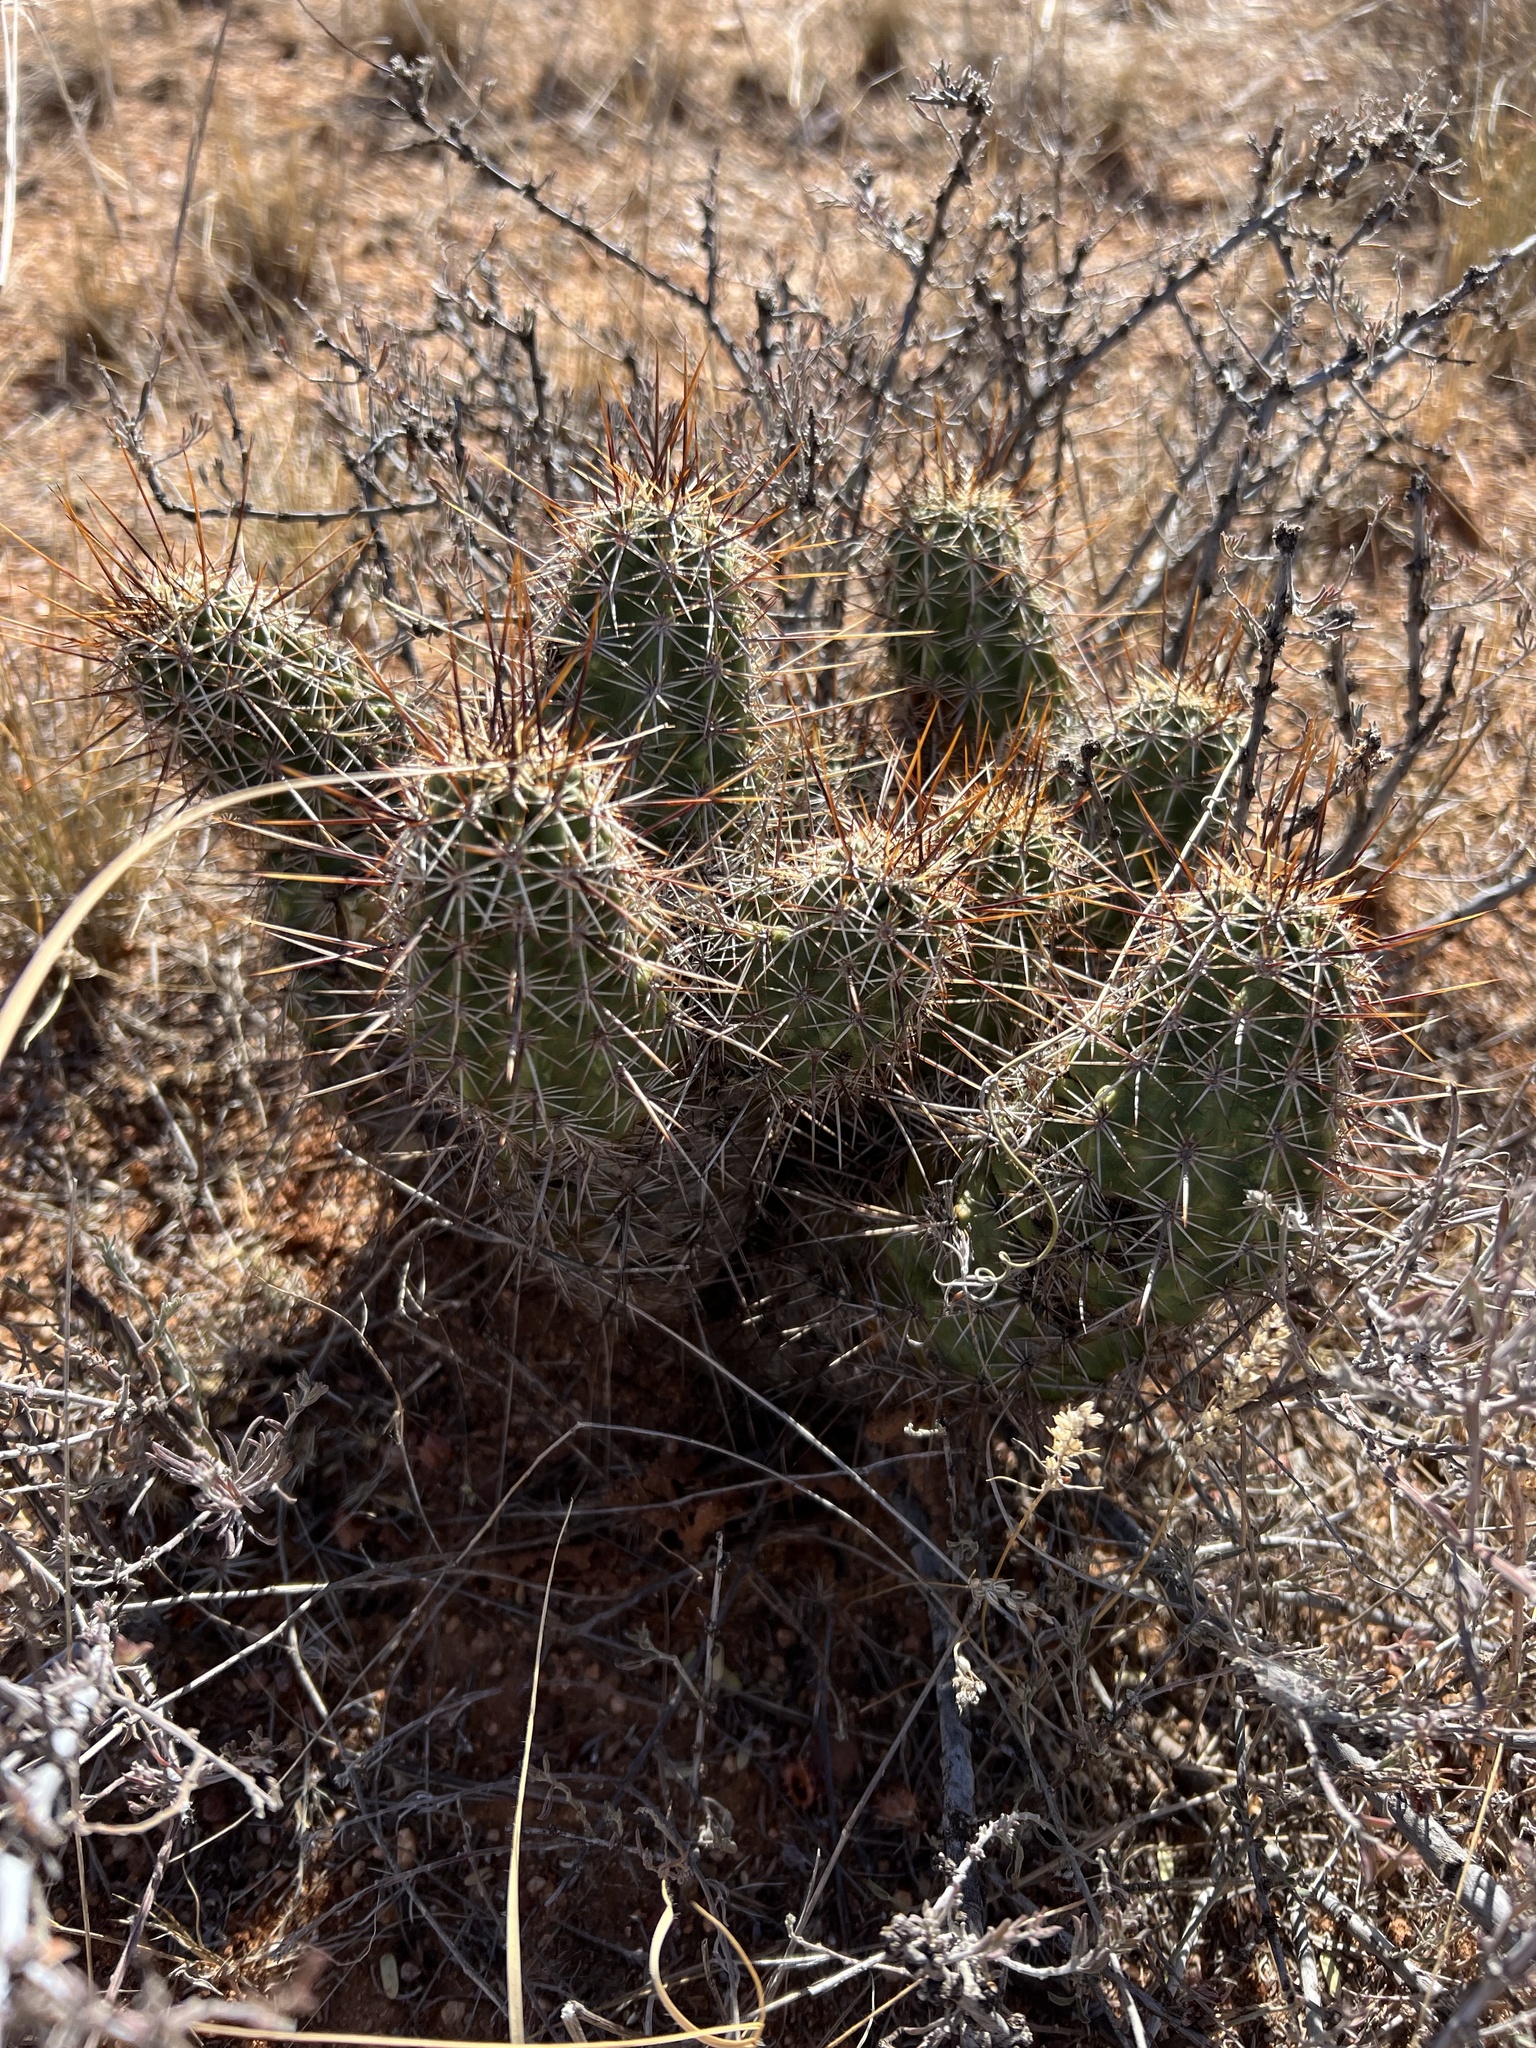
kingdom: Plantae
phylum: Tracheophyta
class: Magnoliopsida
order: Caryophyllales
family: Cactaceae
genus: Echinocereus
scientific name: Echinocereus fasciculatus
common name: Bundle hedgehog
